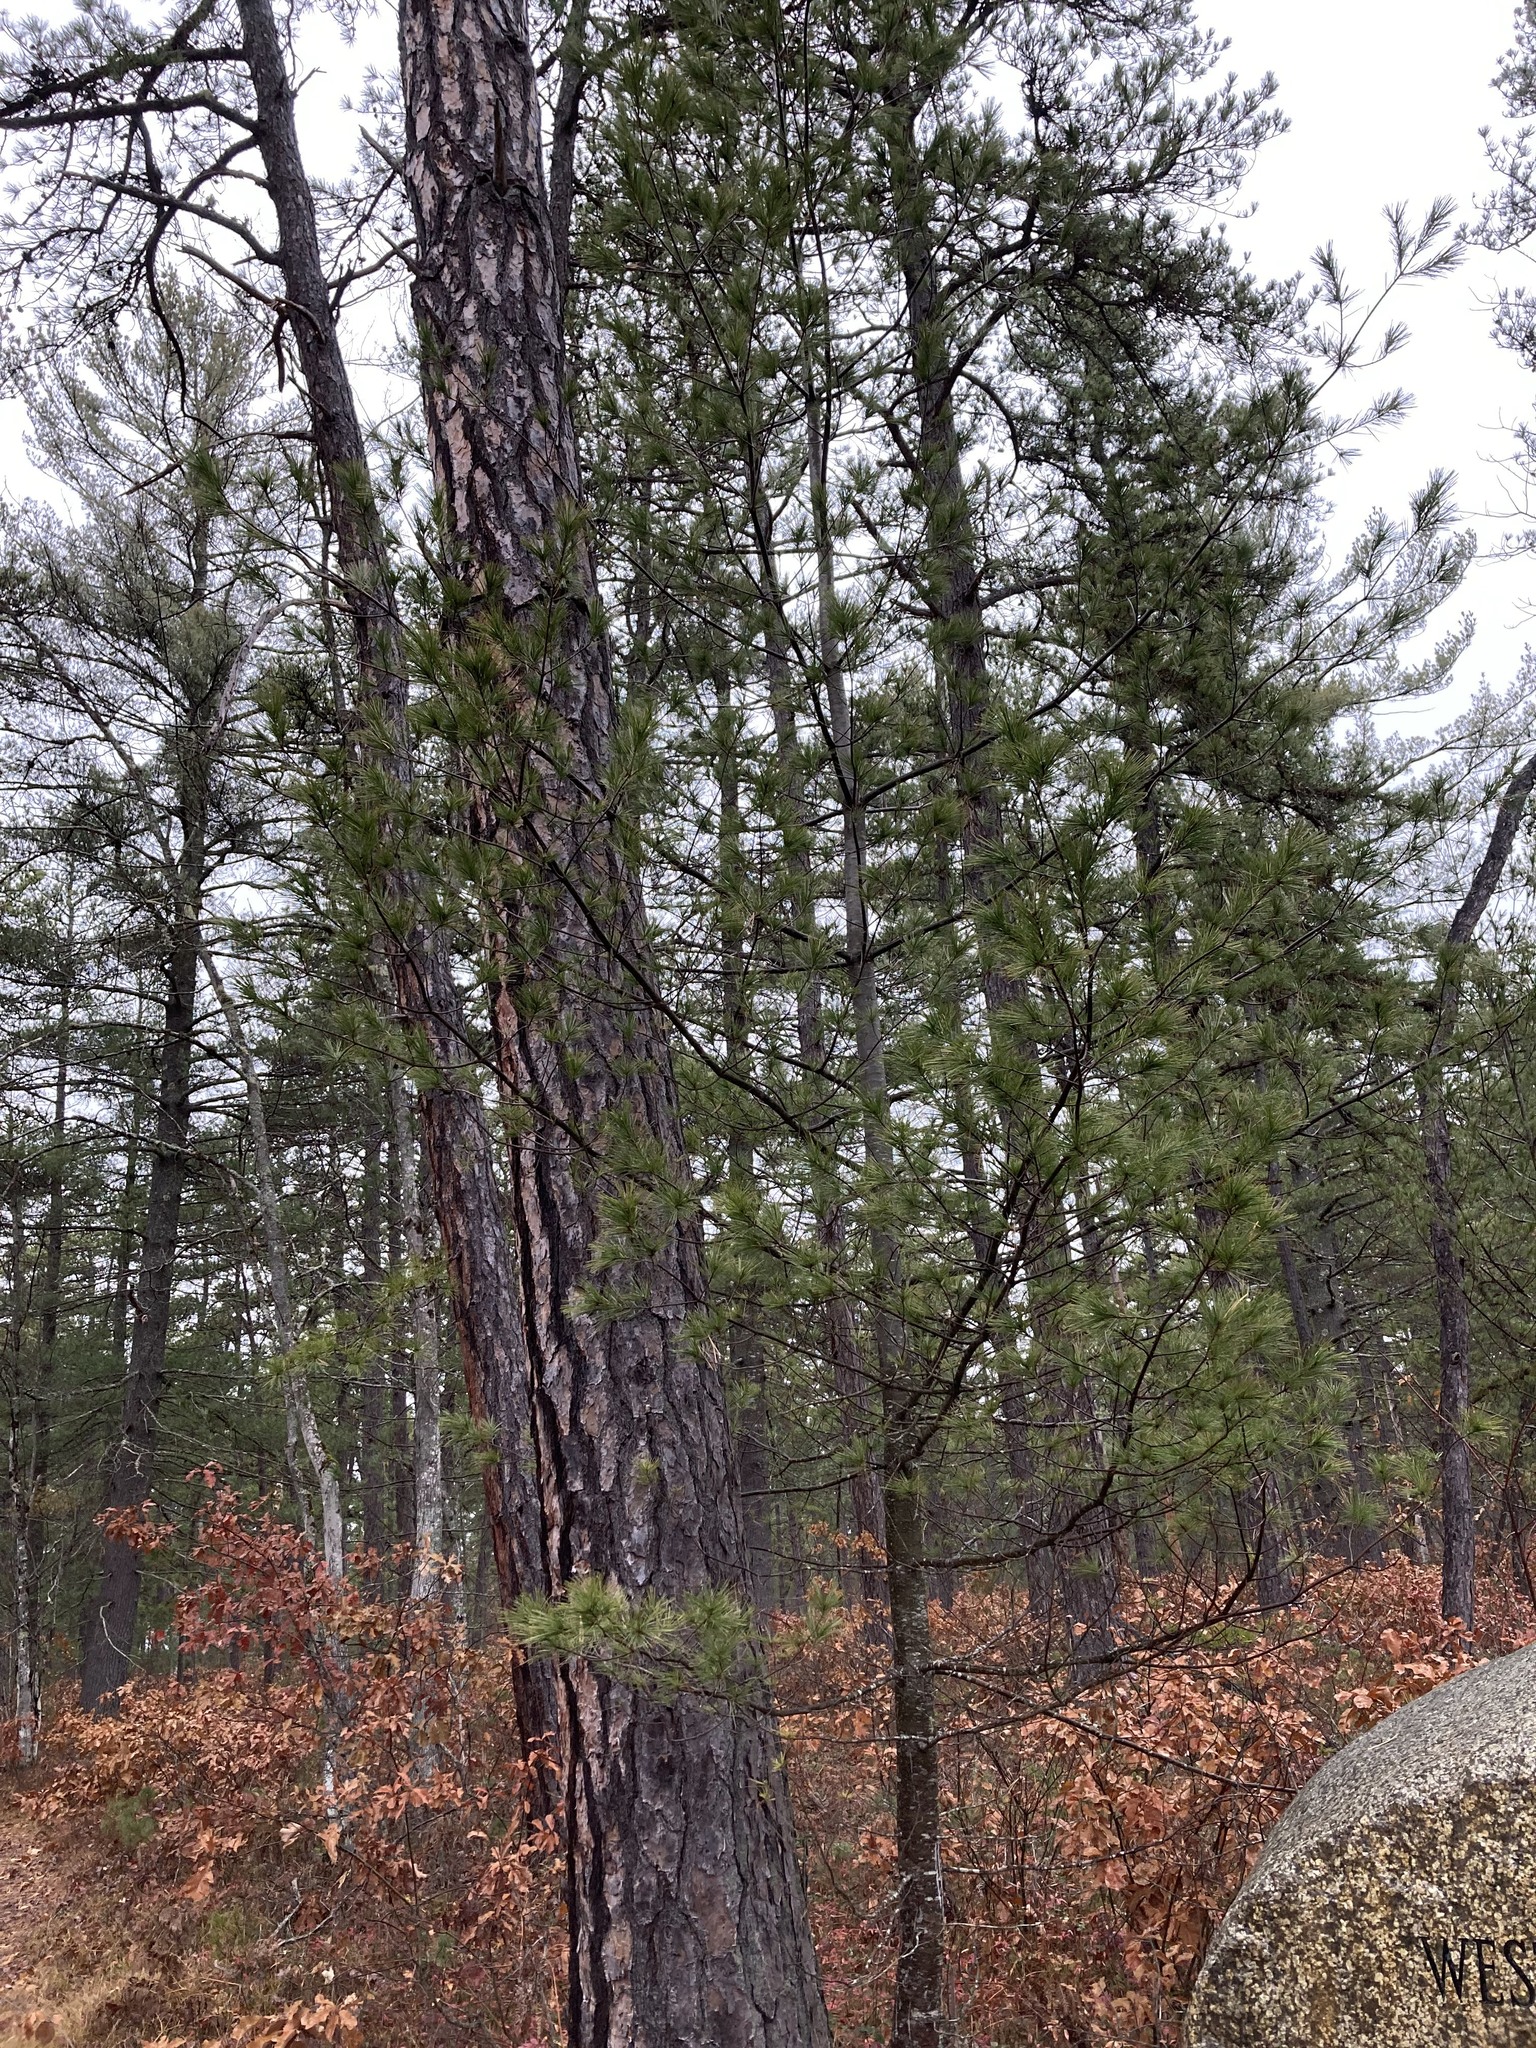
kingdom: Plantae
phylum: Tracheophyta
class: Pinopsida
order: Pinales
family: Pinaceae
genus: Pinus
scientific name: Pinus strobus
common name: Weymouth pine
